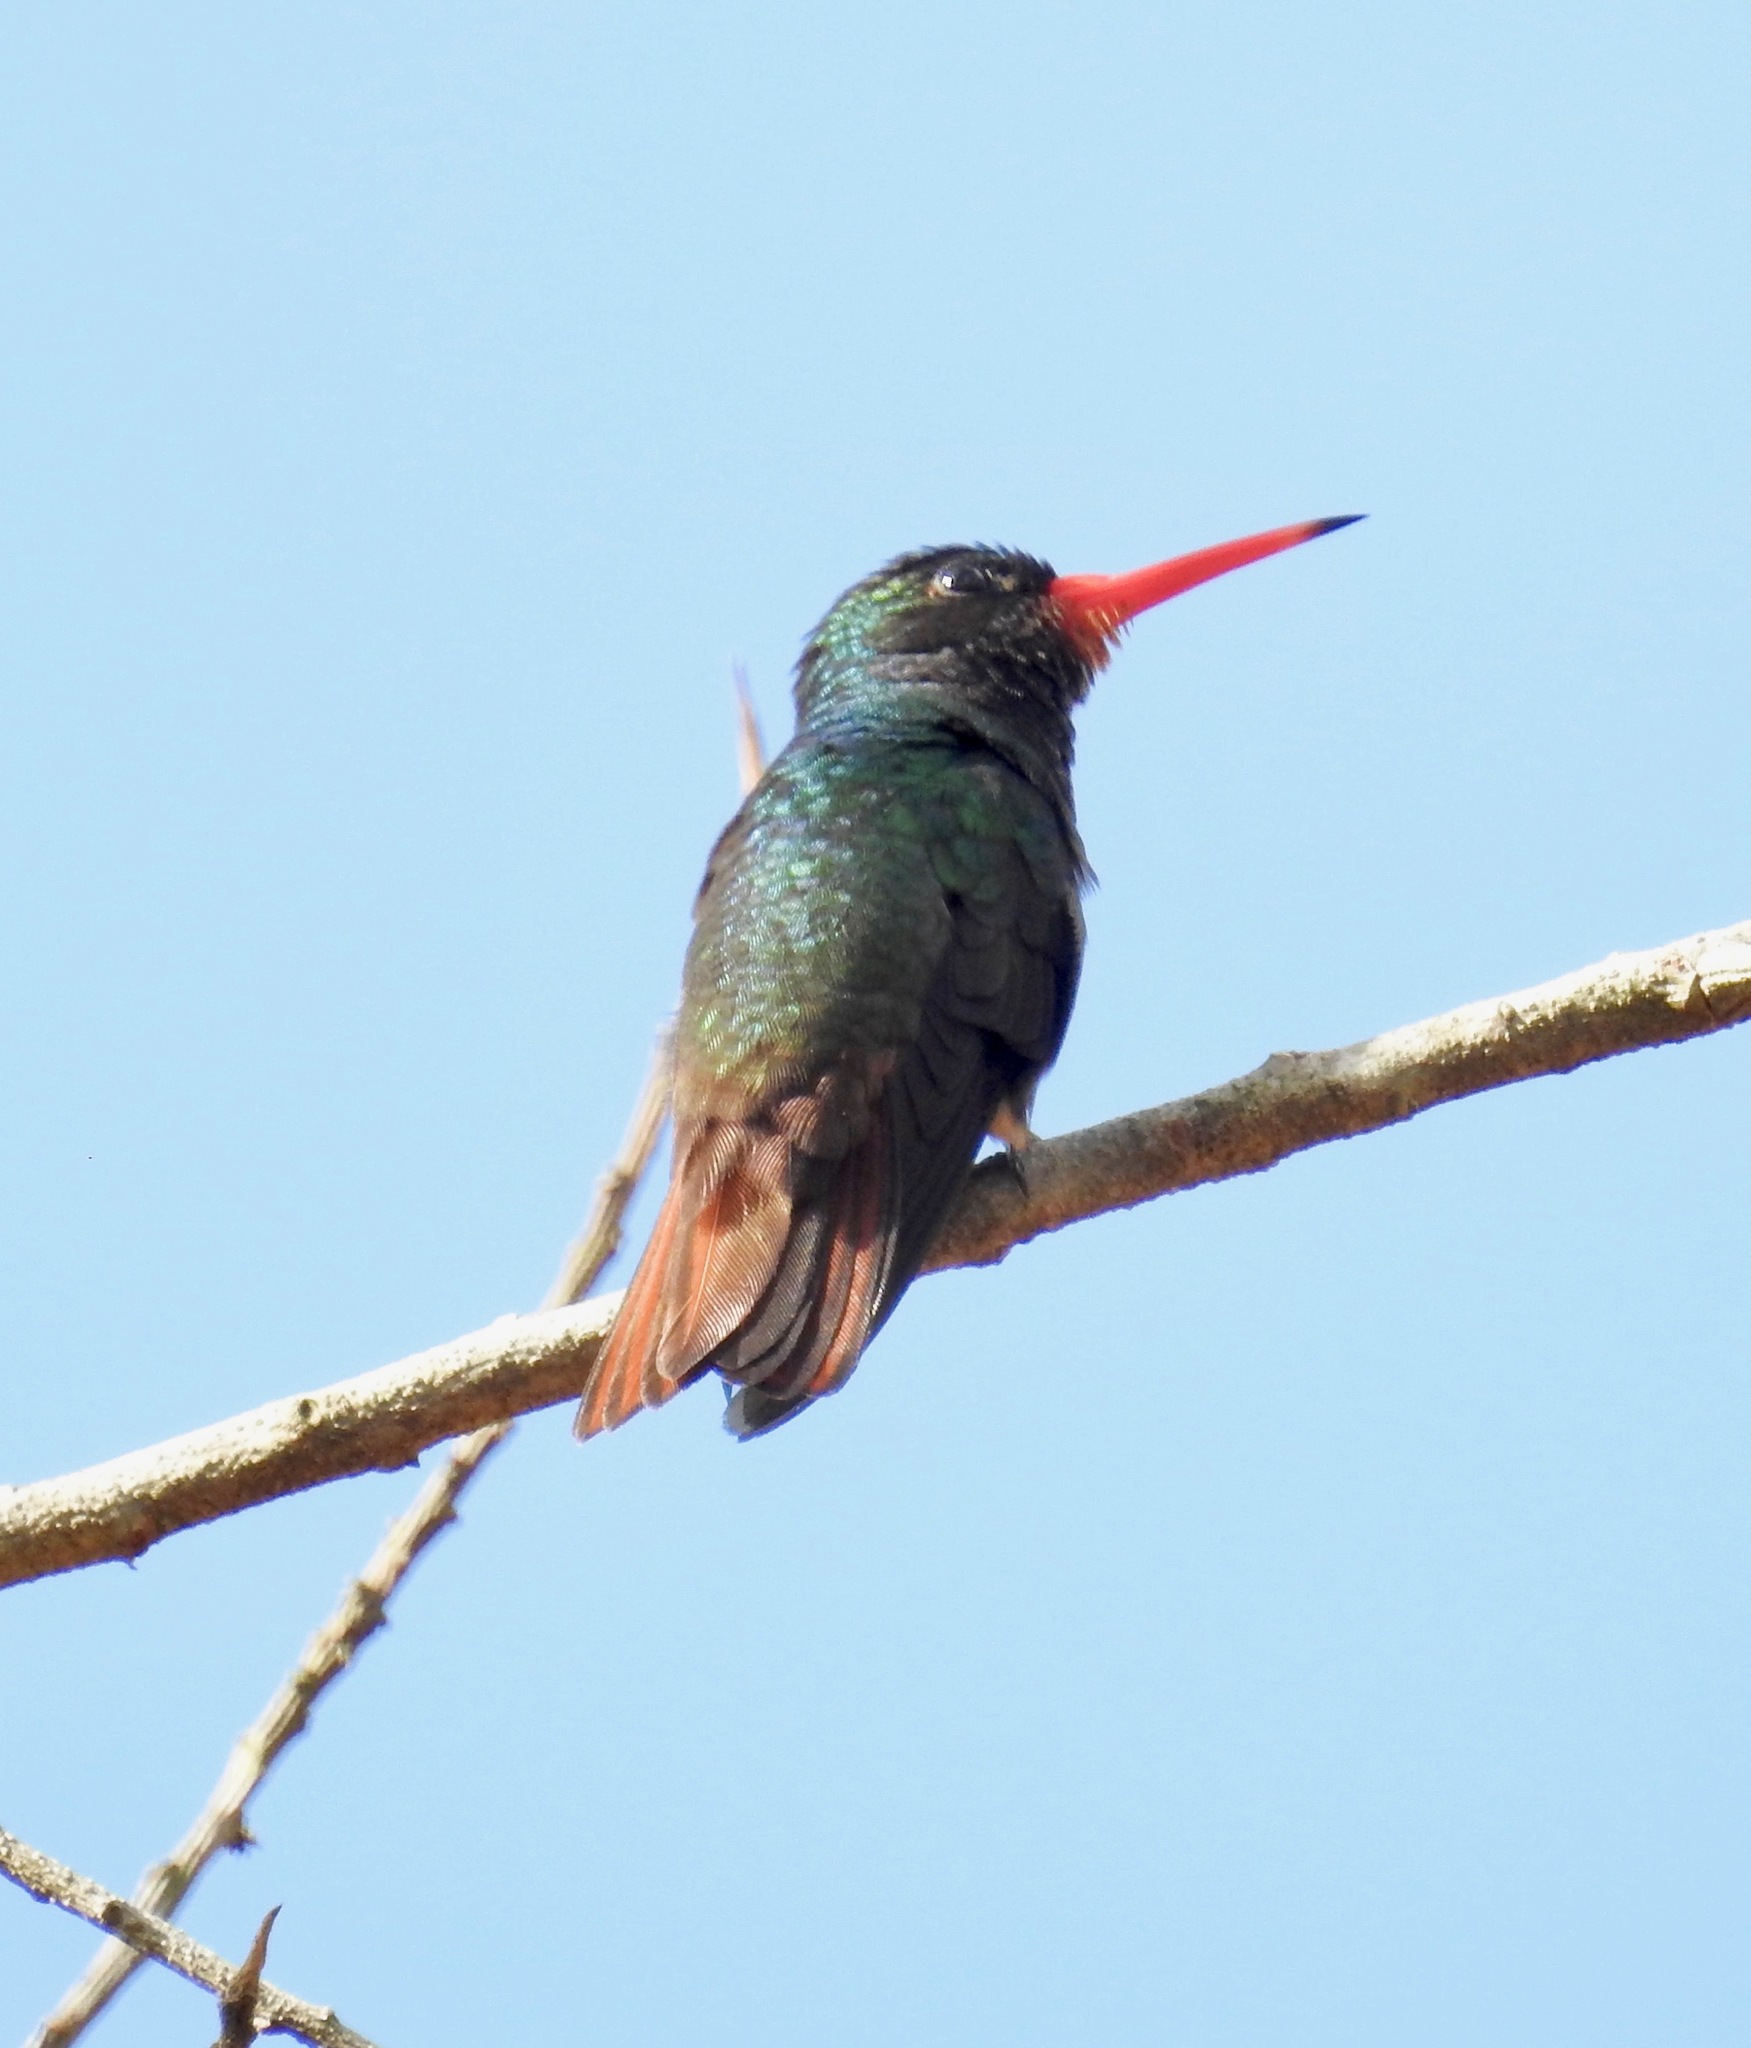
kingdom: Animalia
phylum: Chordata
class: Aves
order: Apodiformes
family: Trochilidae
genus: Hylocharis
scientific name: Hylocharis sapphirina
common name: Rufous-throated sapphire
